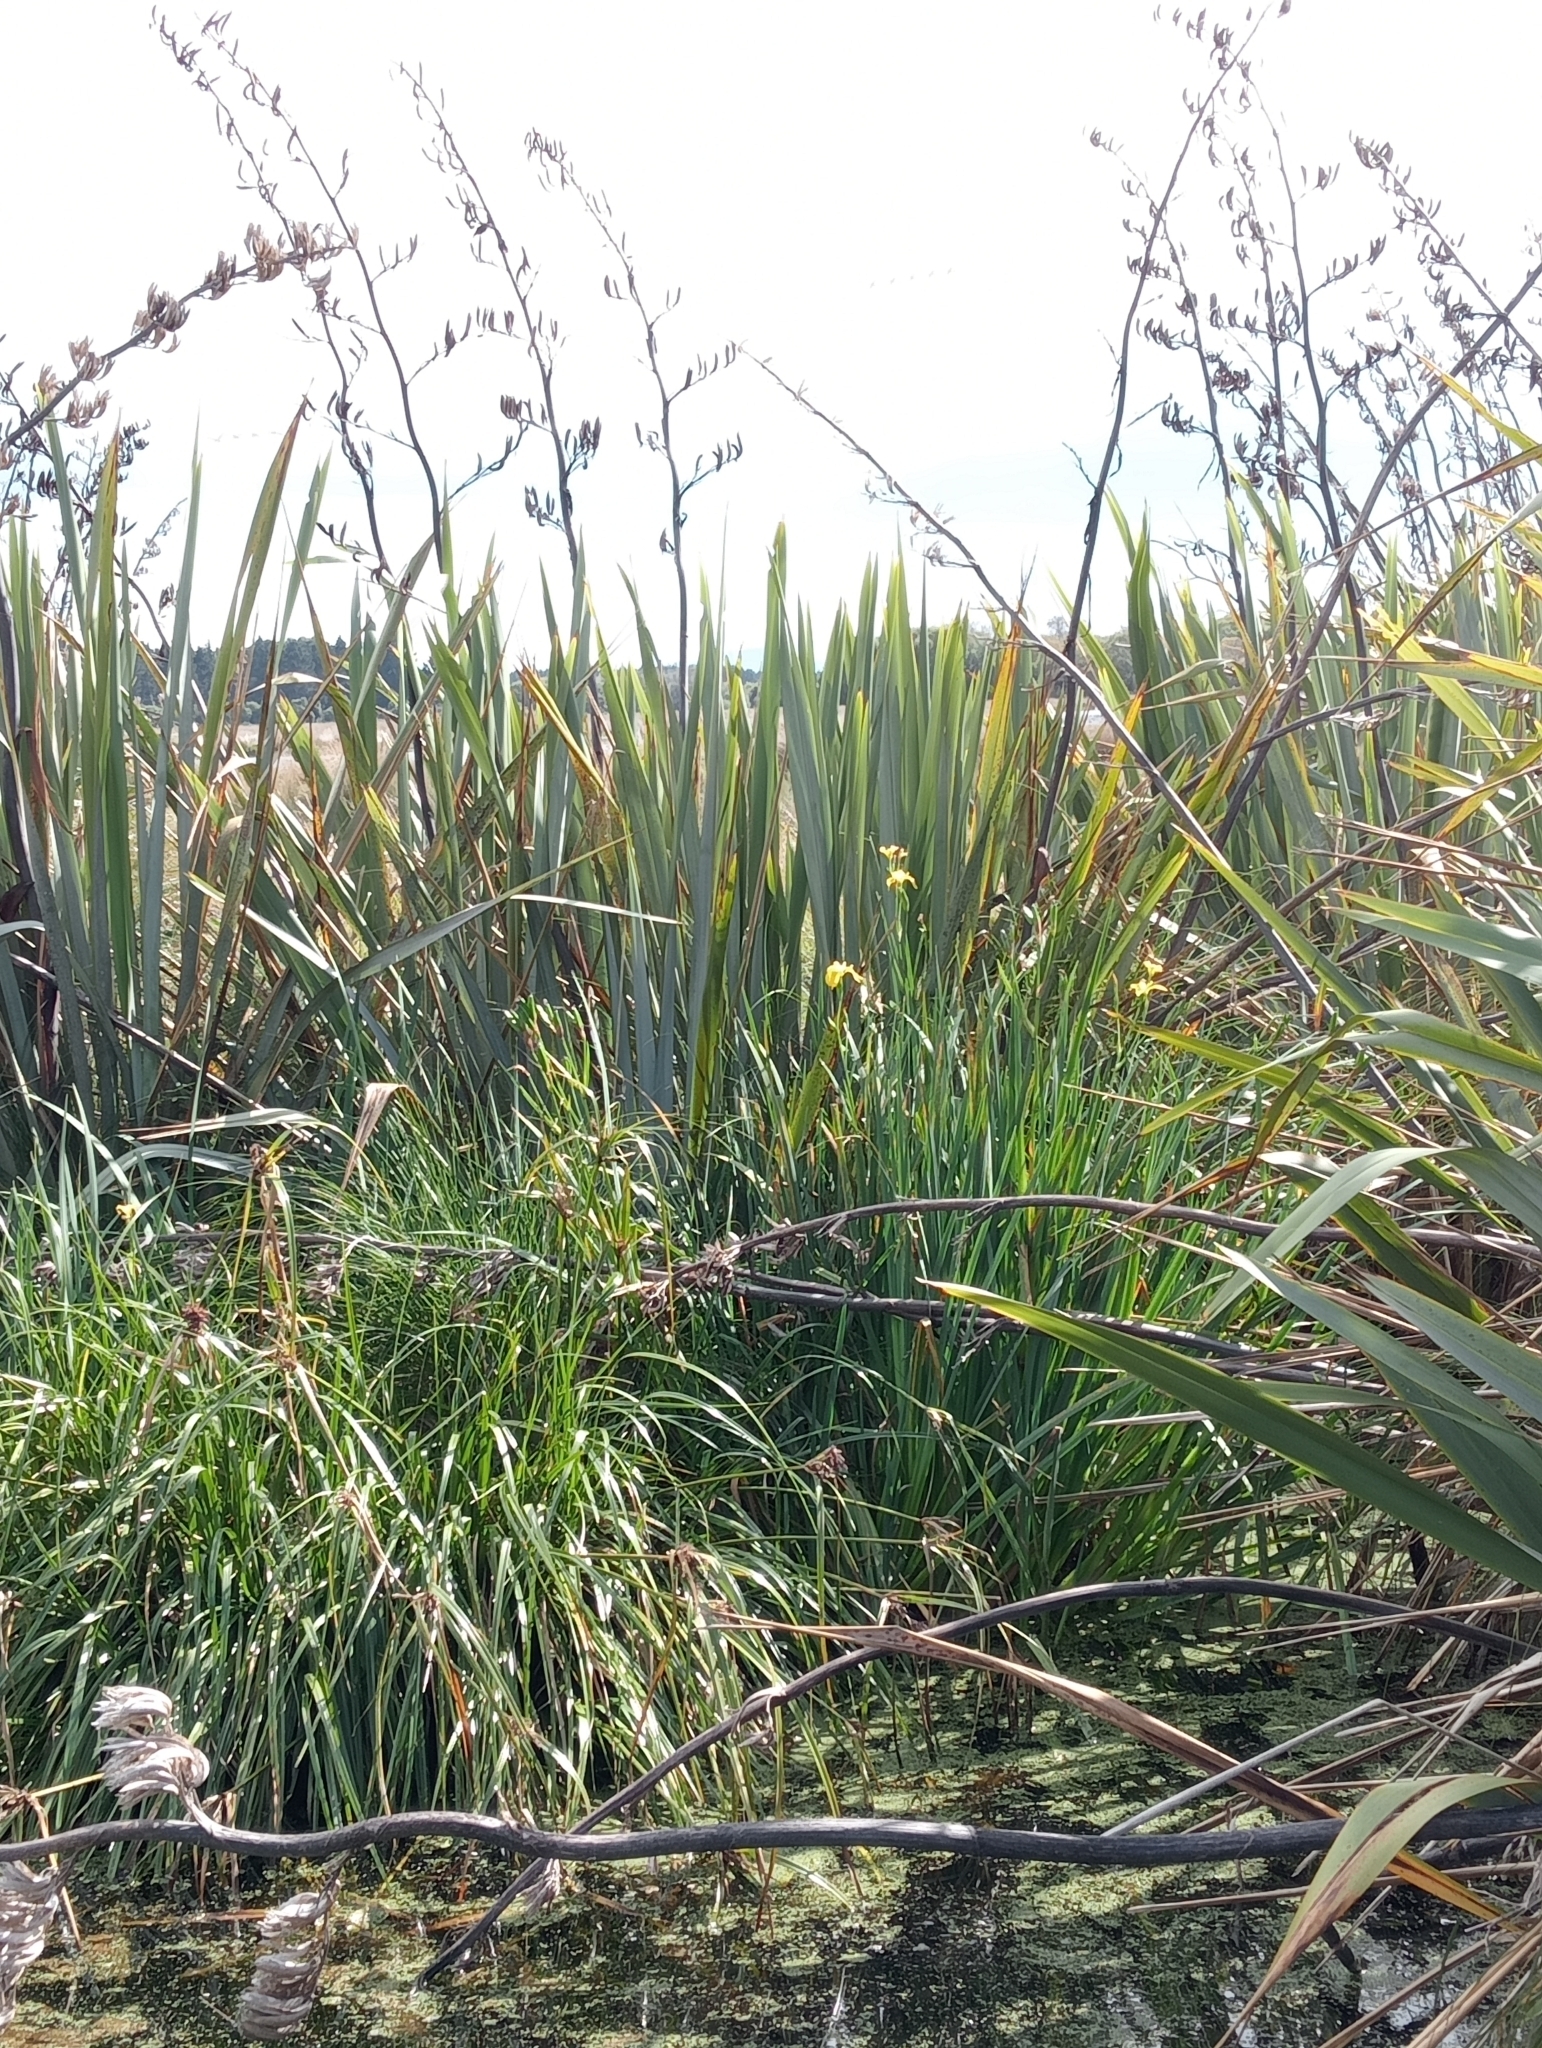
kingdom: Plantae
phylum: Tracheophyta
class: Liliopsida
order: Asparagales
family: Iridaceae
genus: Iris
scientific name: Iris pseudacorus
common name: Yellow flag
